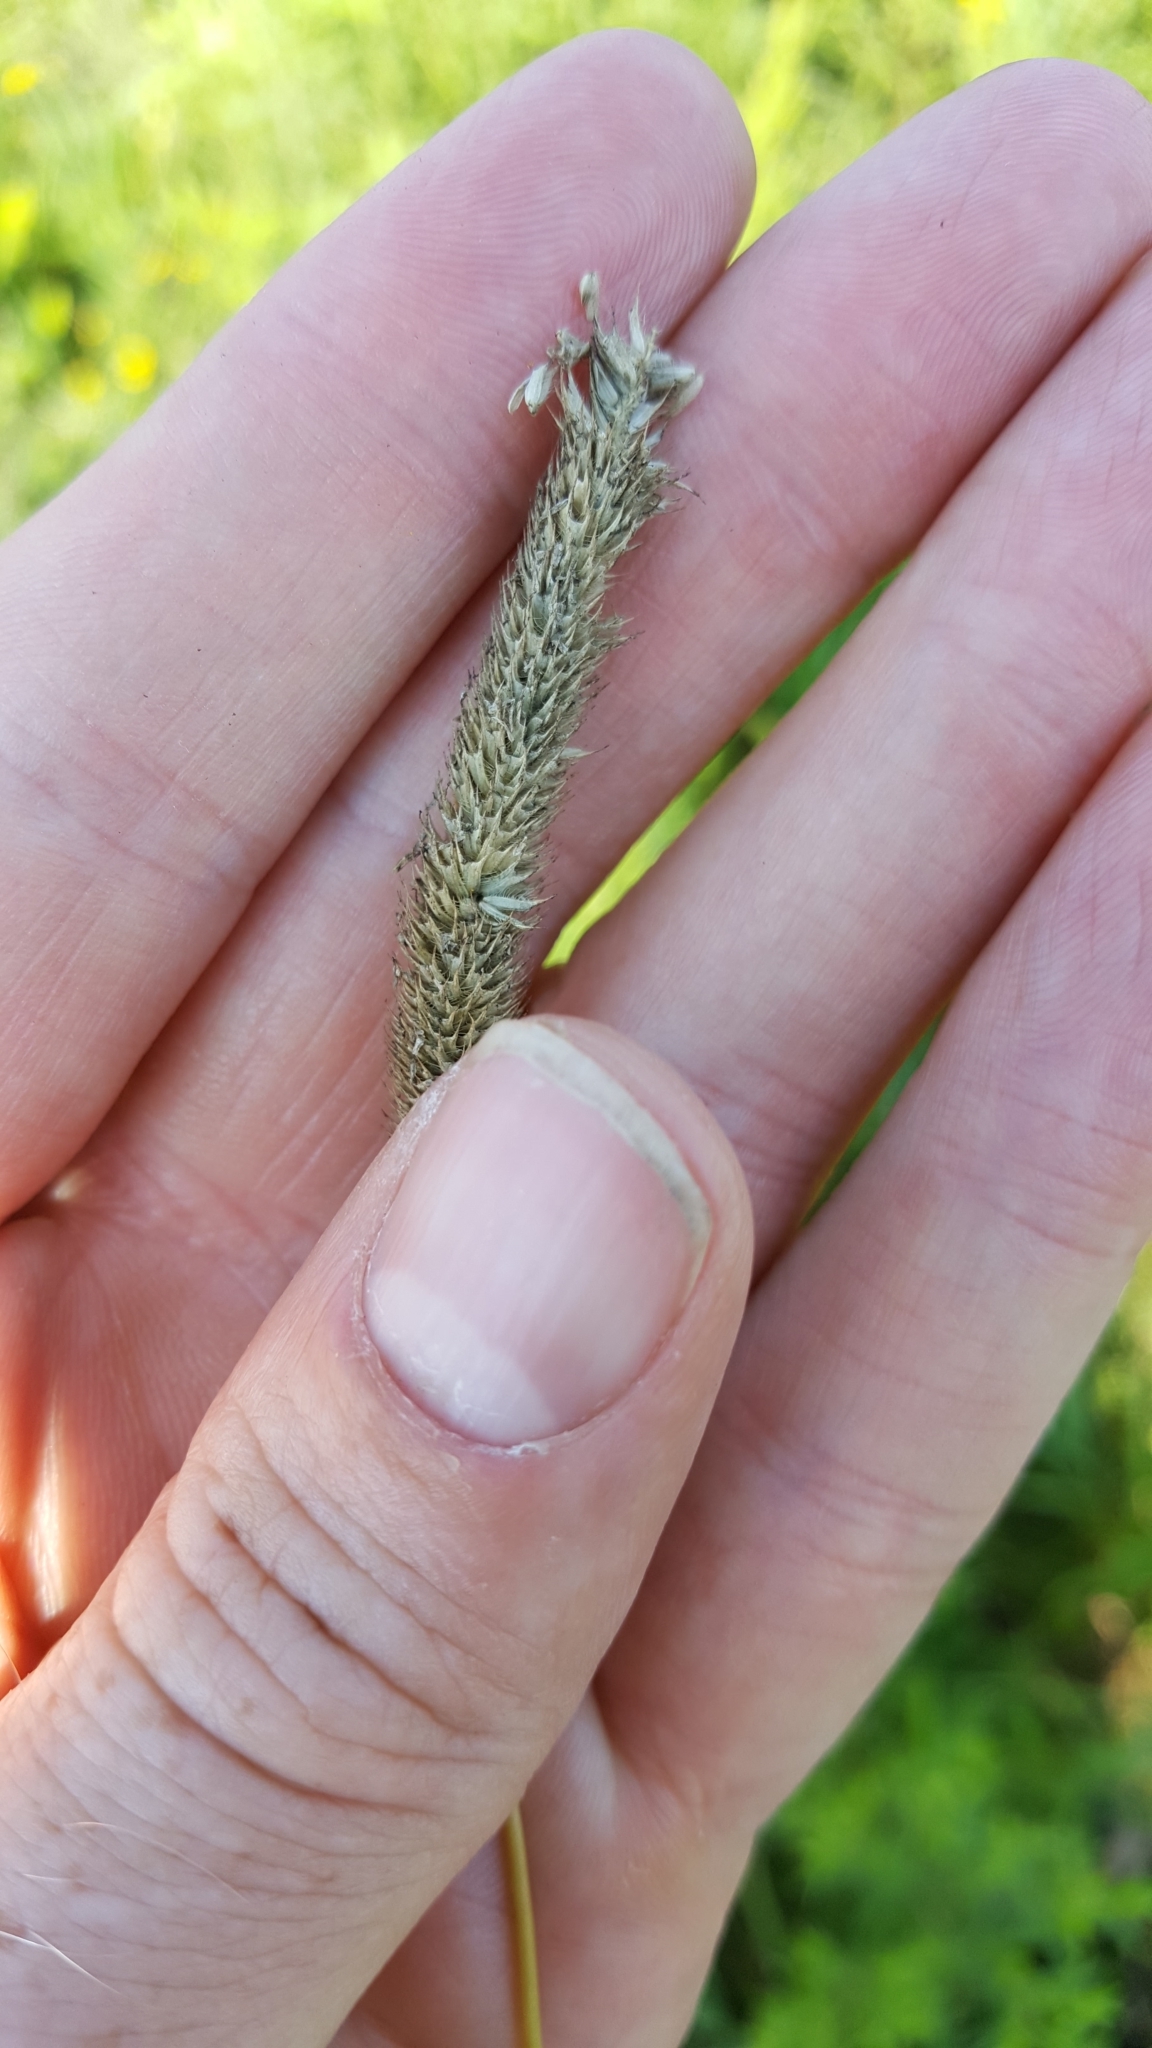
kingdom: Plantae
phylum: Tracheophyta
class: Liliopsida
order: Poales
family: Poaceae
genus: Phleum
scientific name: Phleum pratense
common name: Timothy grass
